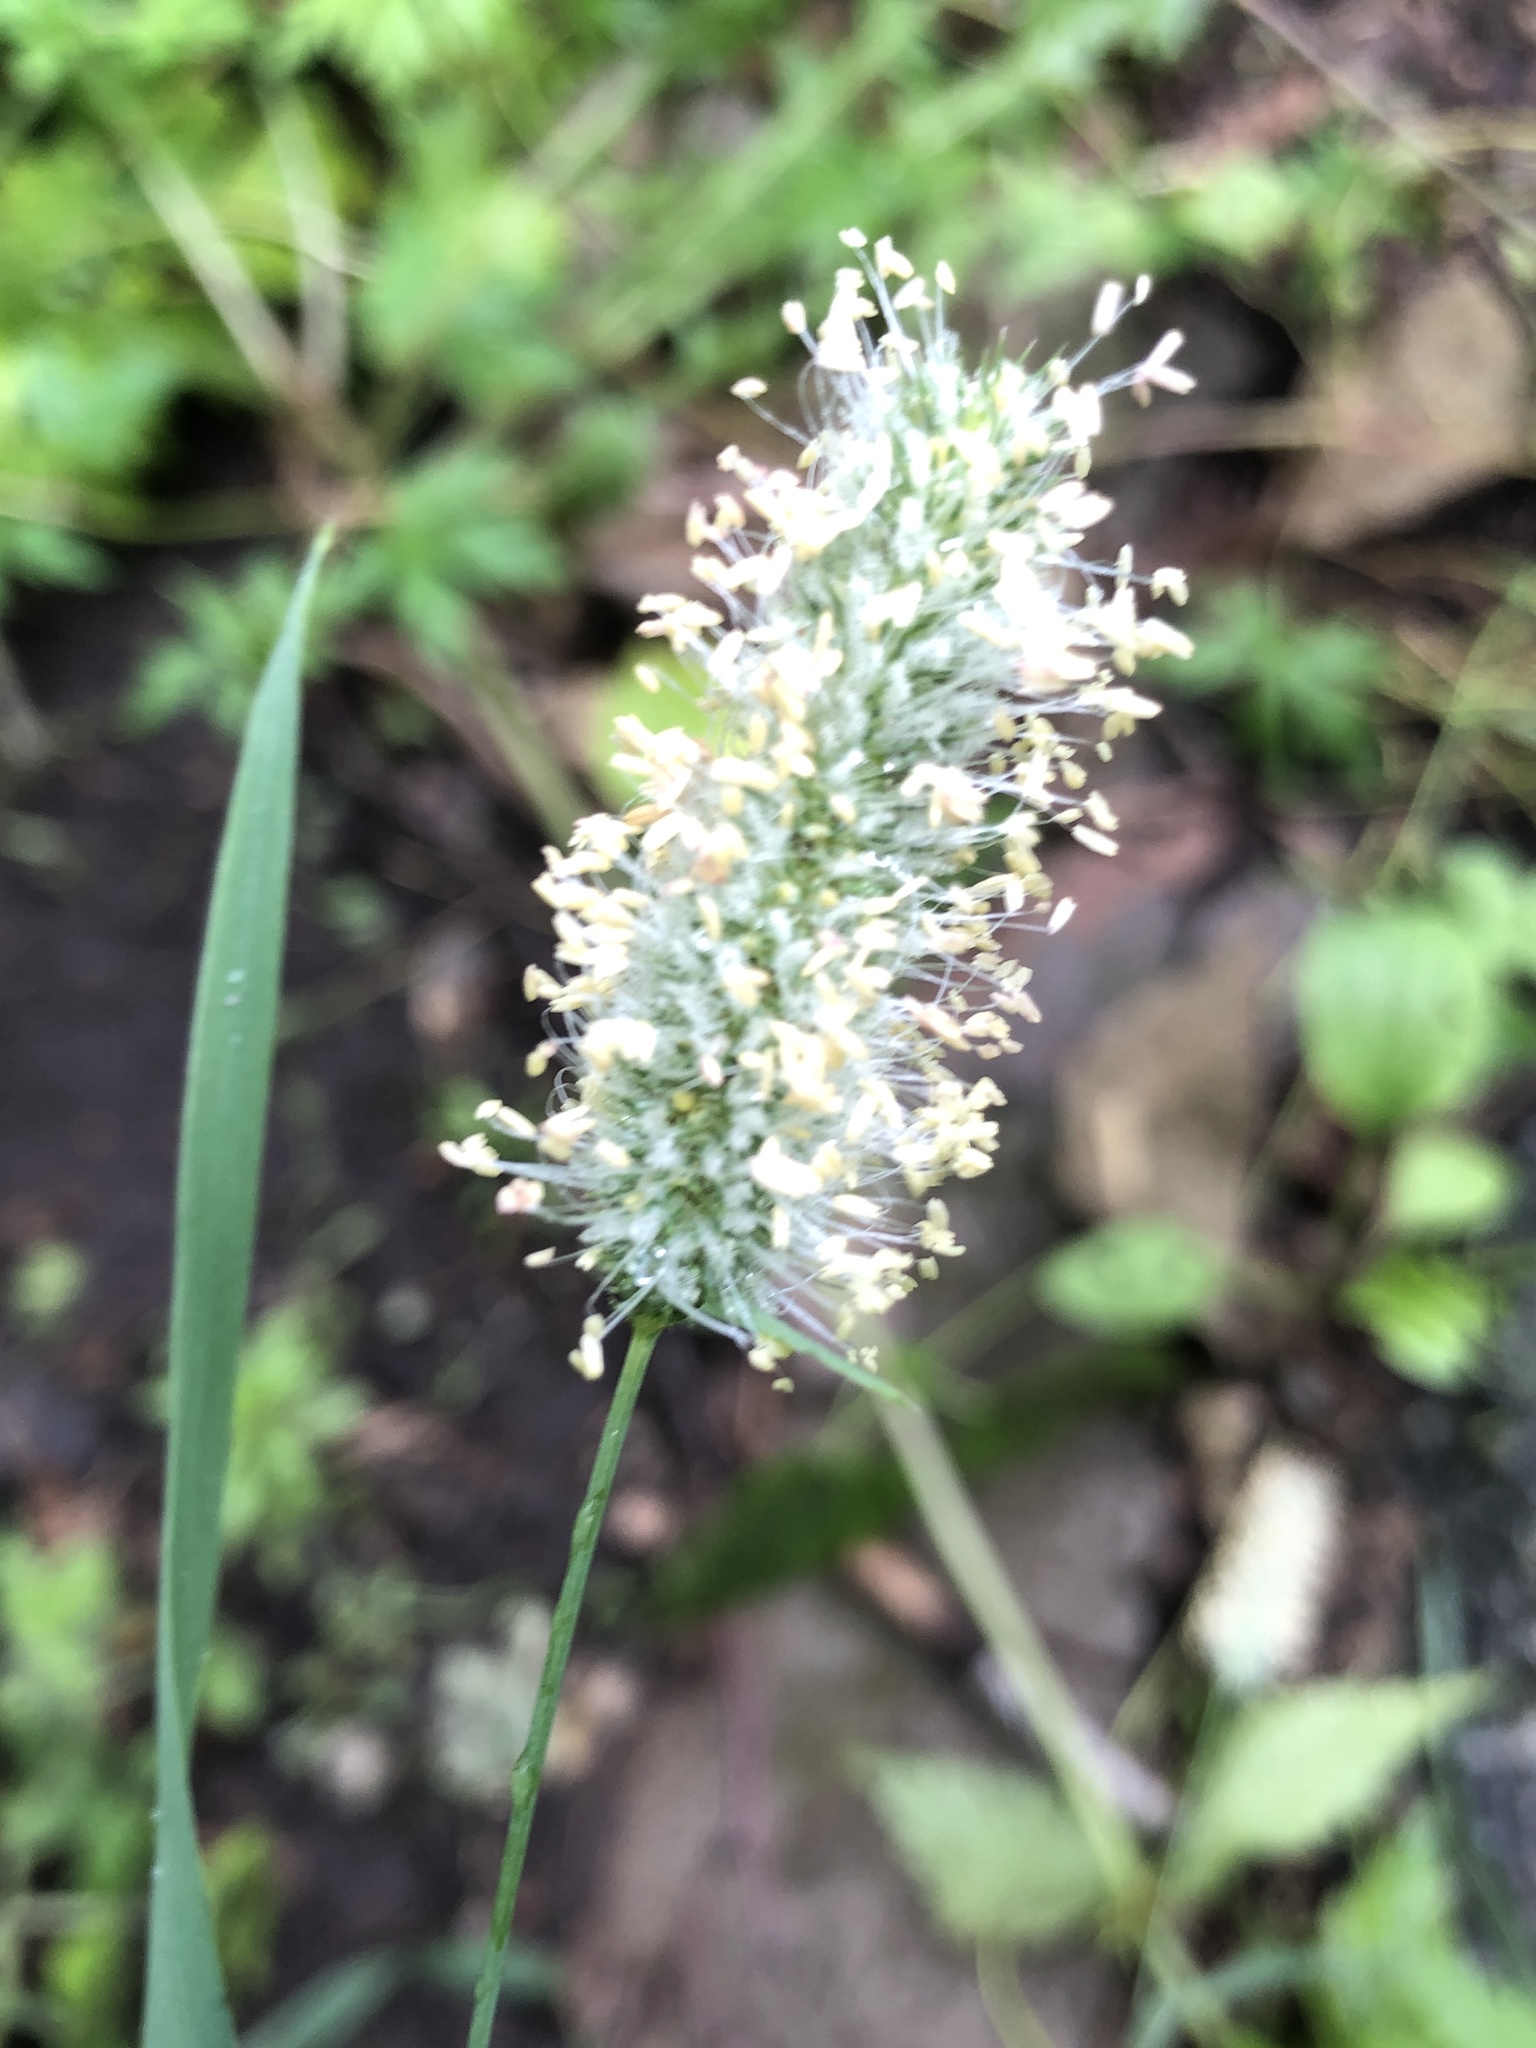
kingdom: Plantae
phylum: Tracheophyta
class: Liliopsida
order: Poales
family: Poaceae
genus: Phleum
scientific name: Phleum pratense
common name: Timothy grass
